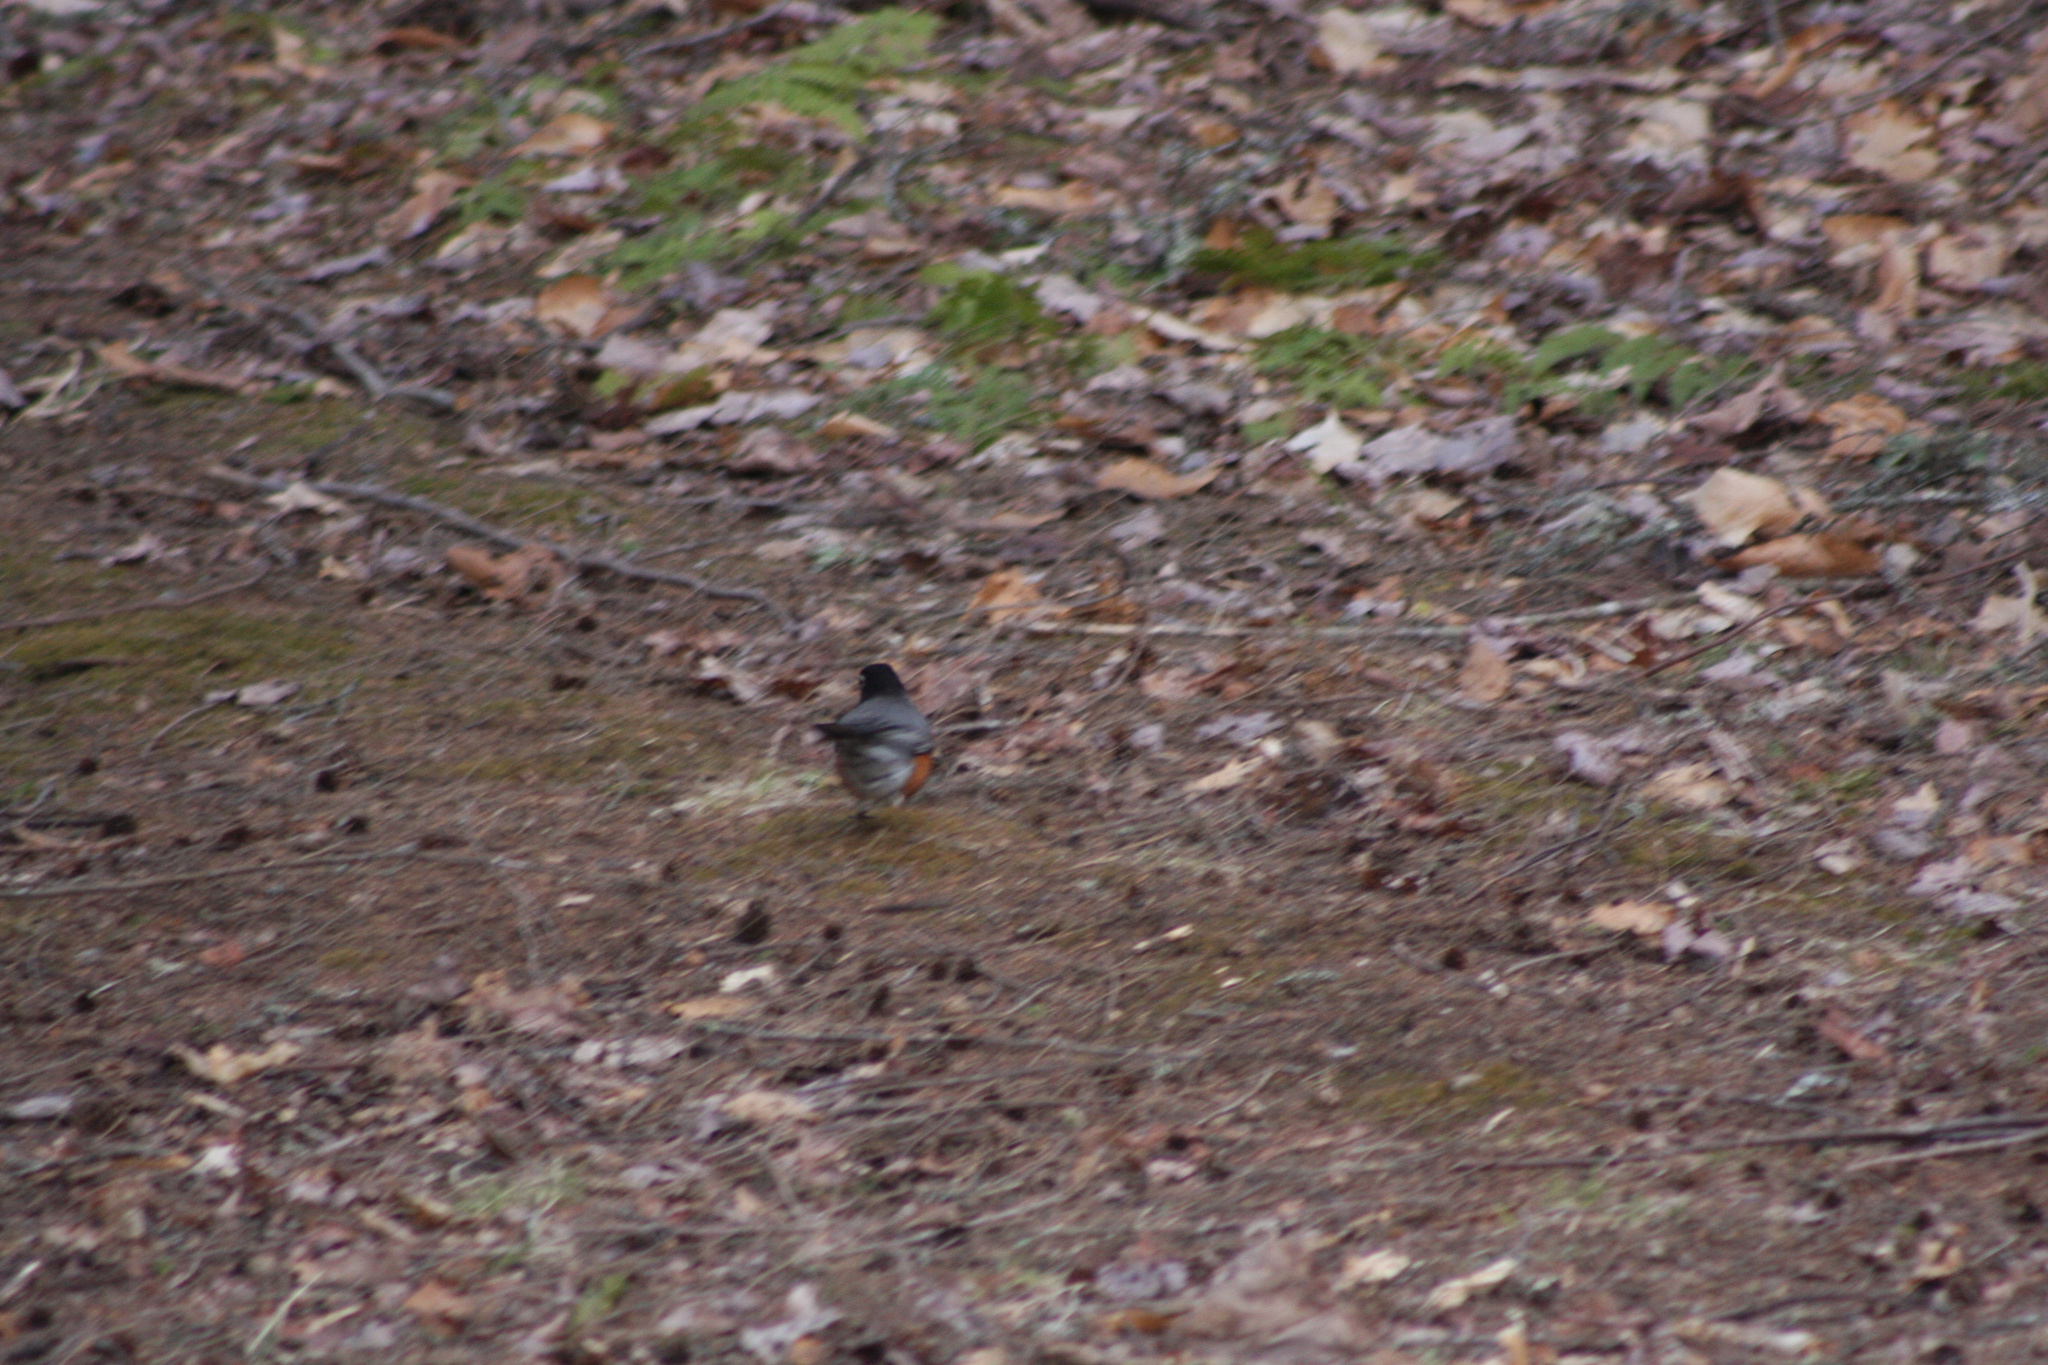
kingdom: Animalia
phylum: Chordata
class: Aves
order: Passeriformes
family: Turdidae
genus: Turdus
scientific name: Turdus migratorius
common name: American robin
